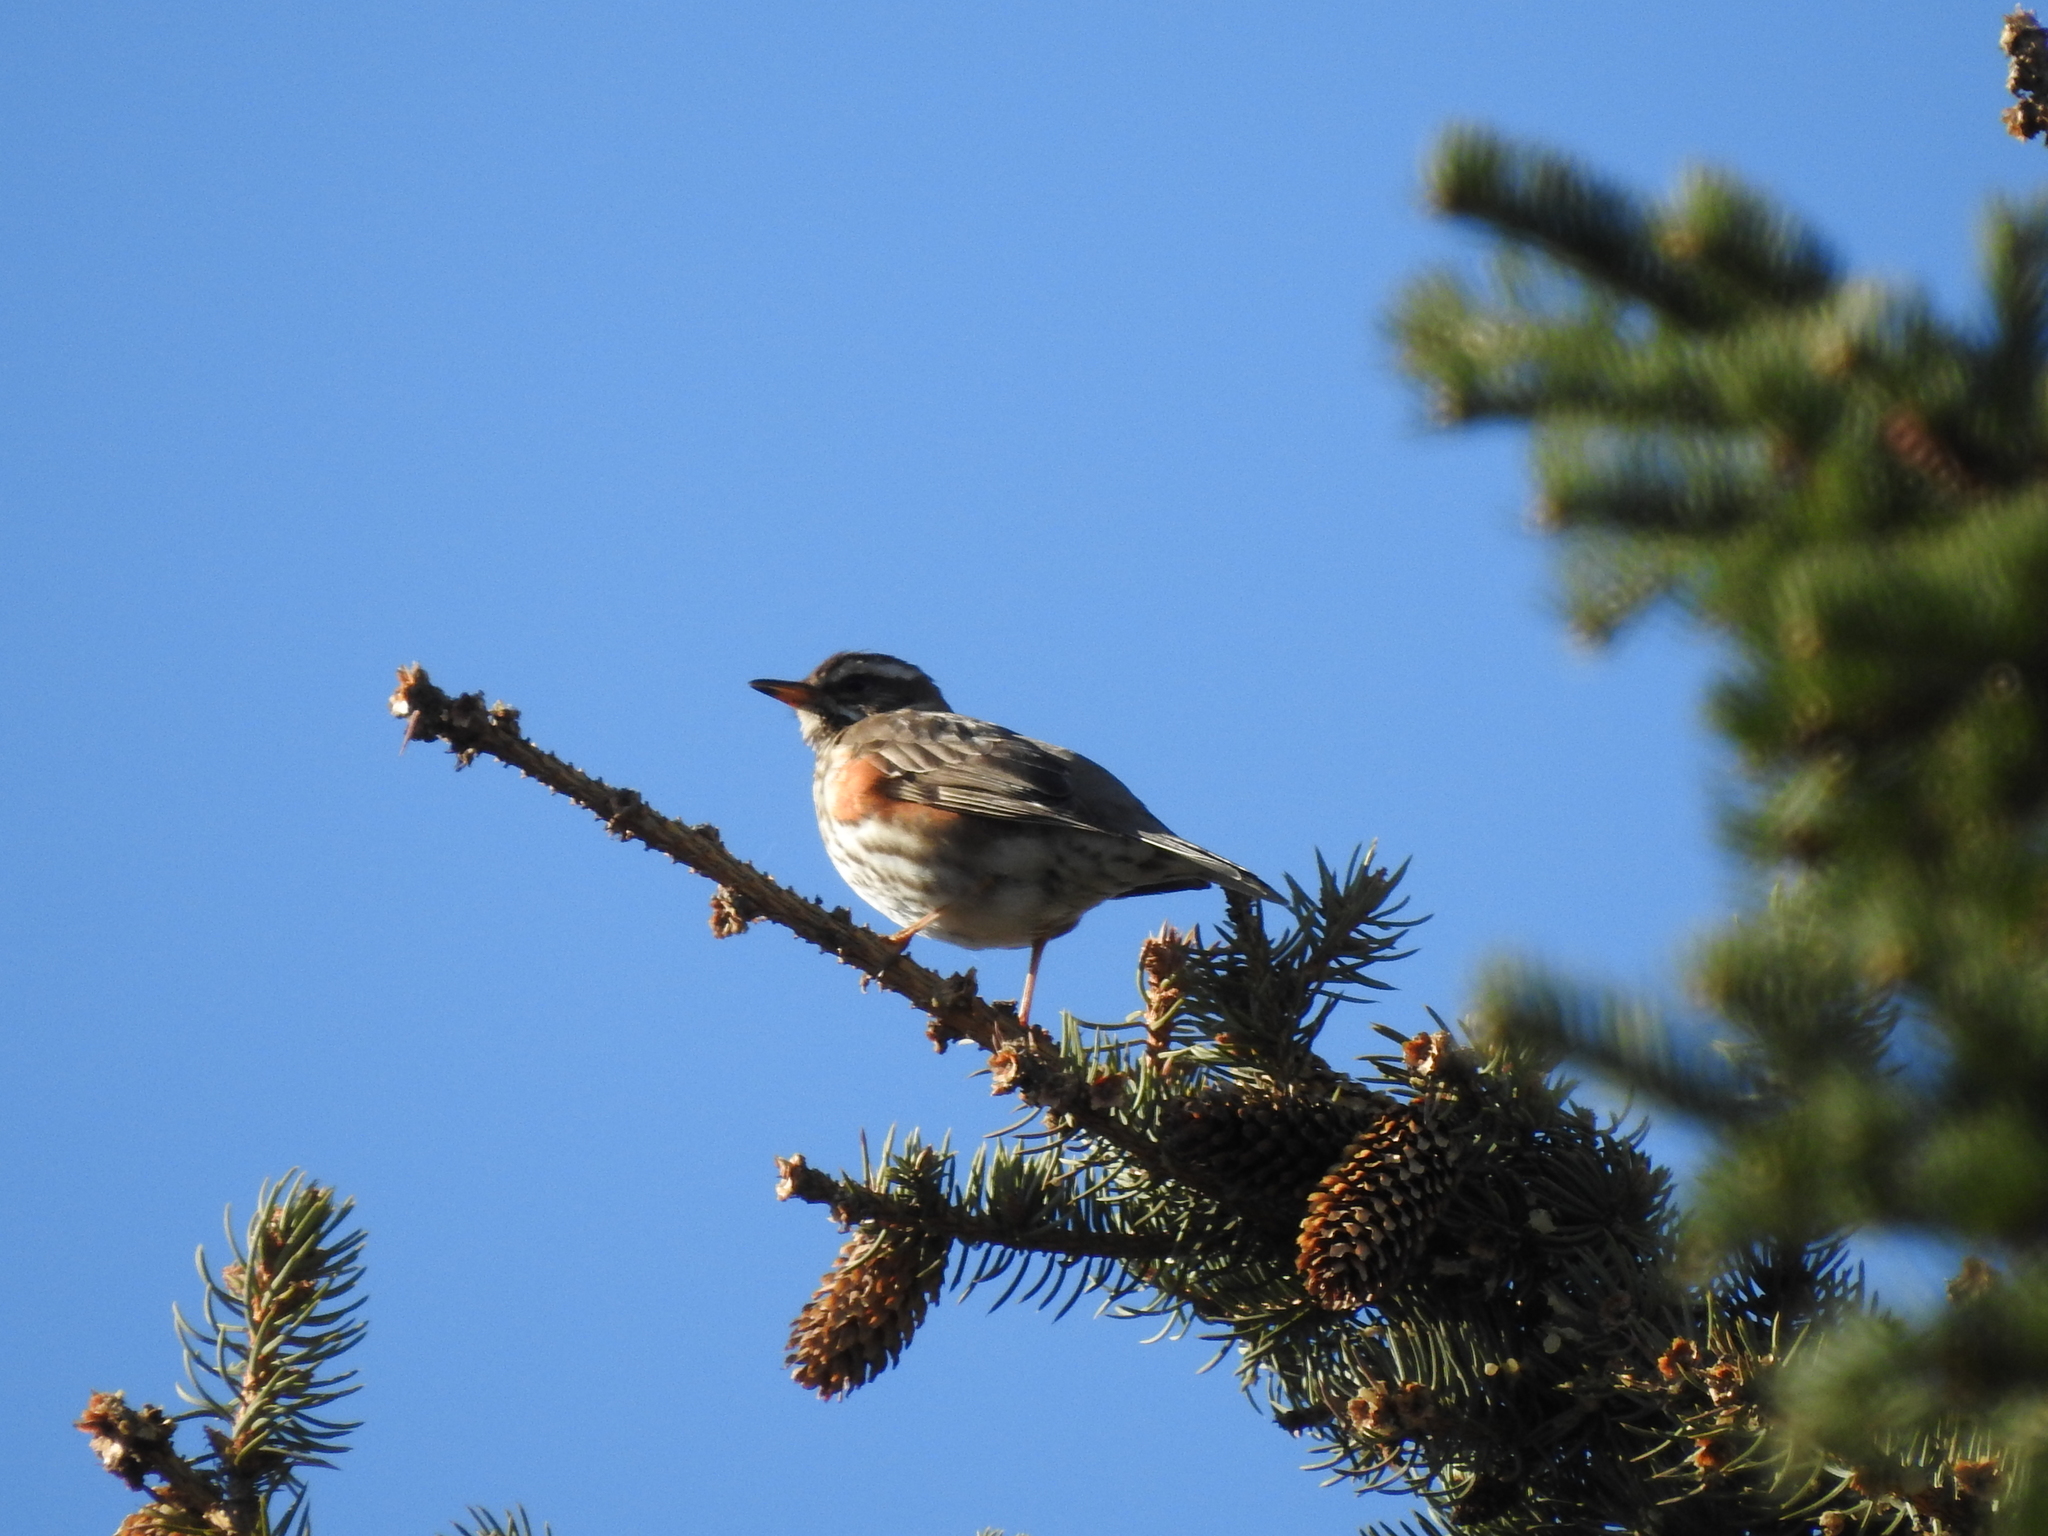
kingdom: Animalia
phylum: Chordata
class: Aves
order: Passeriformes
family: Turdidae
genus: Turdus
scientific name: Turdus iliacus
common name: Redwing
